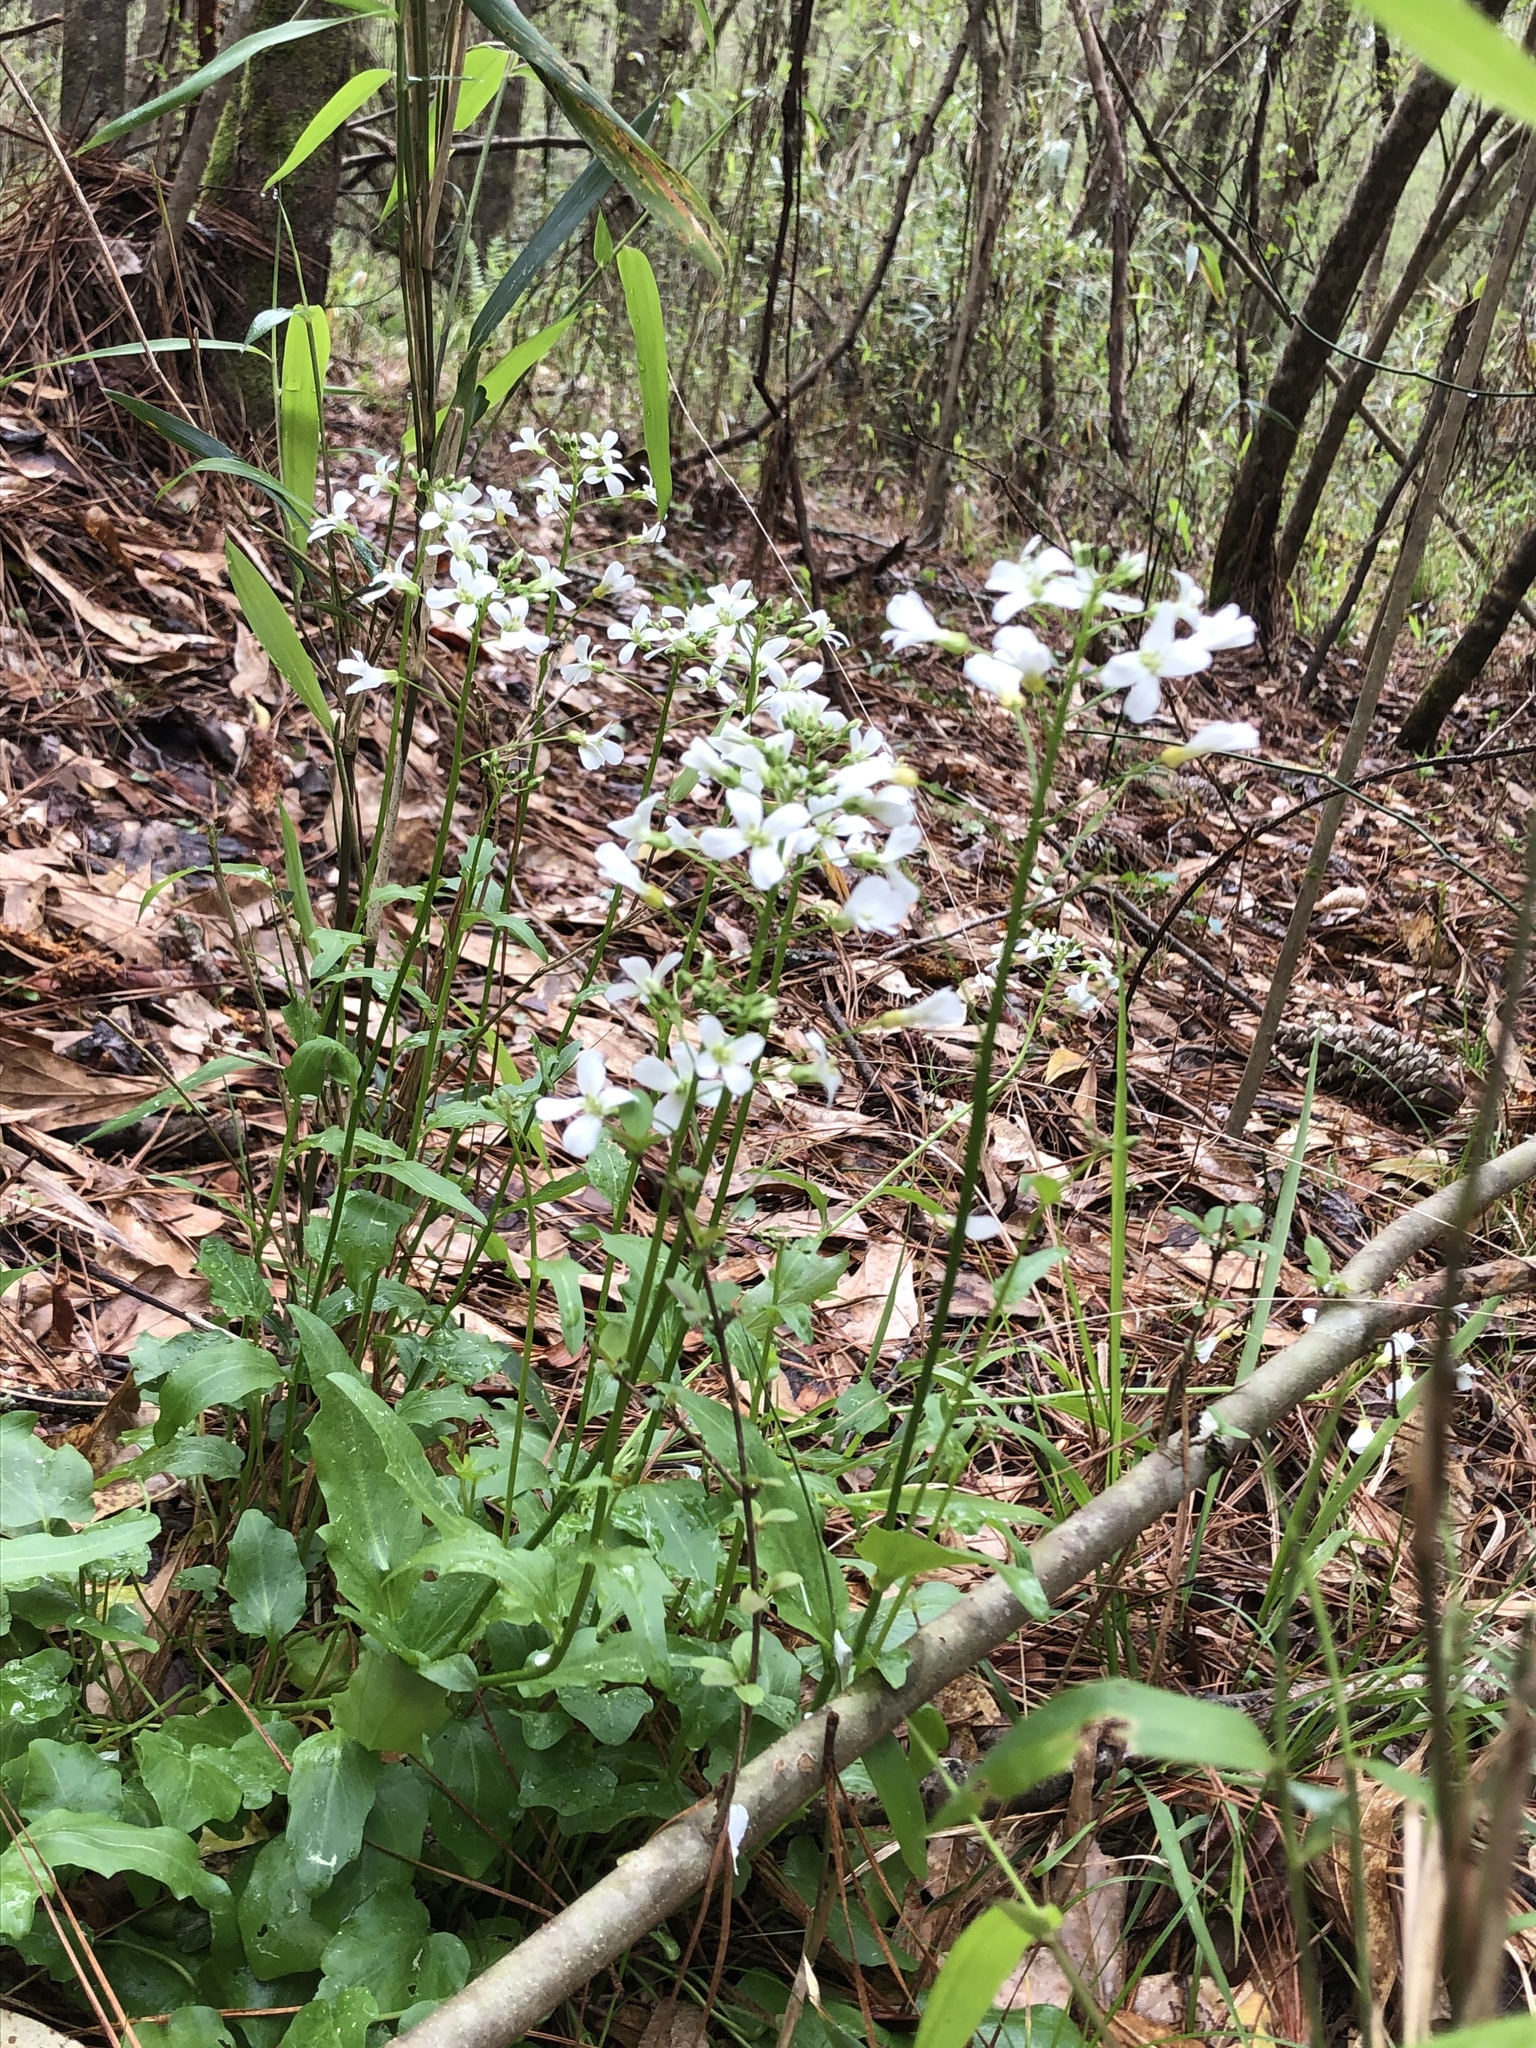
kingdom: Plantae
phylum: Tracheophyta
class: Magnoliopsida
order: Brassicales
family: Brassicaceae
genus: Cardamine
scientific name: Cardamine bulbosa
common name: Spring cress
